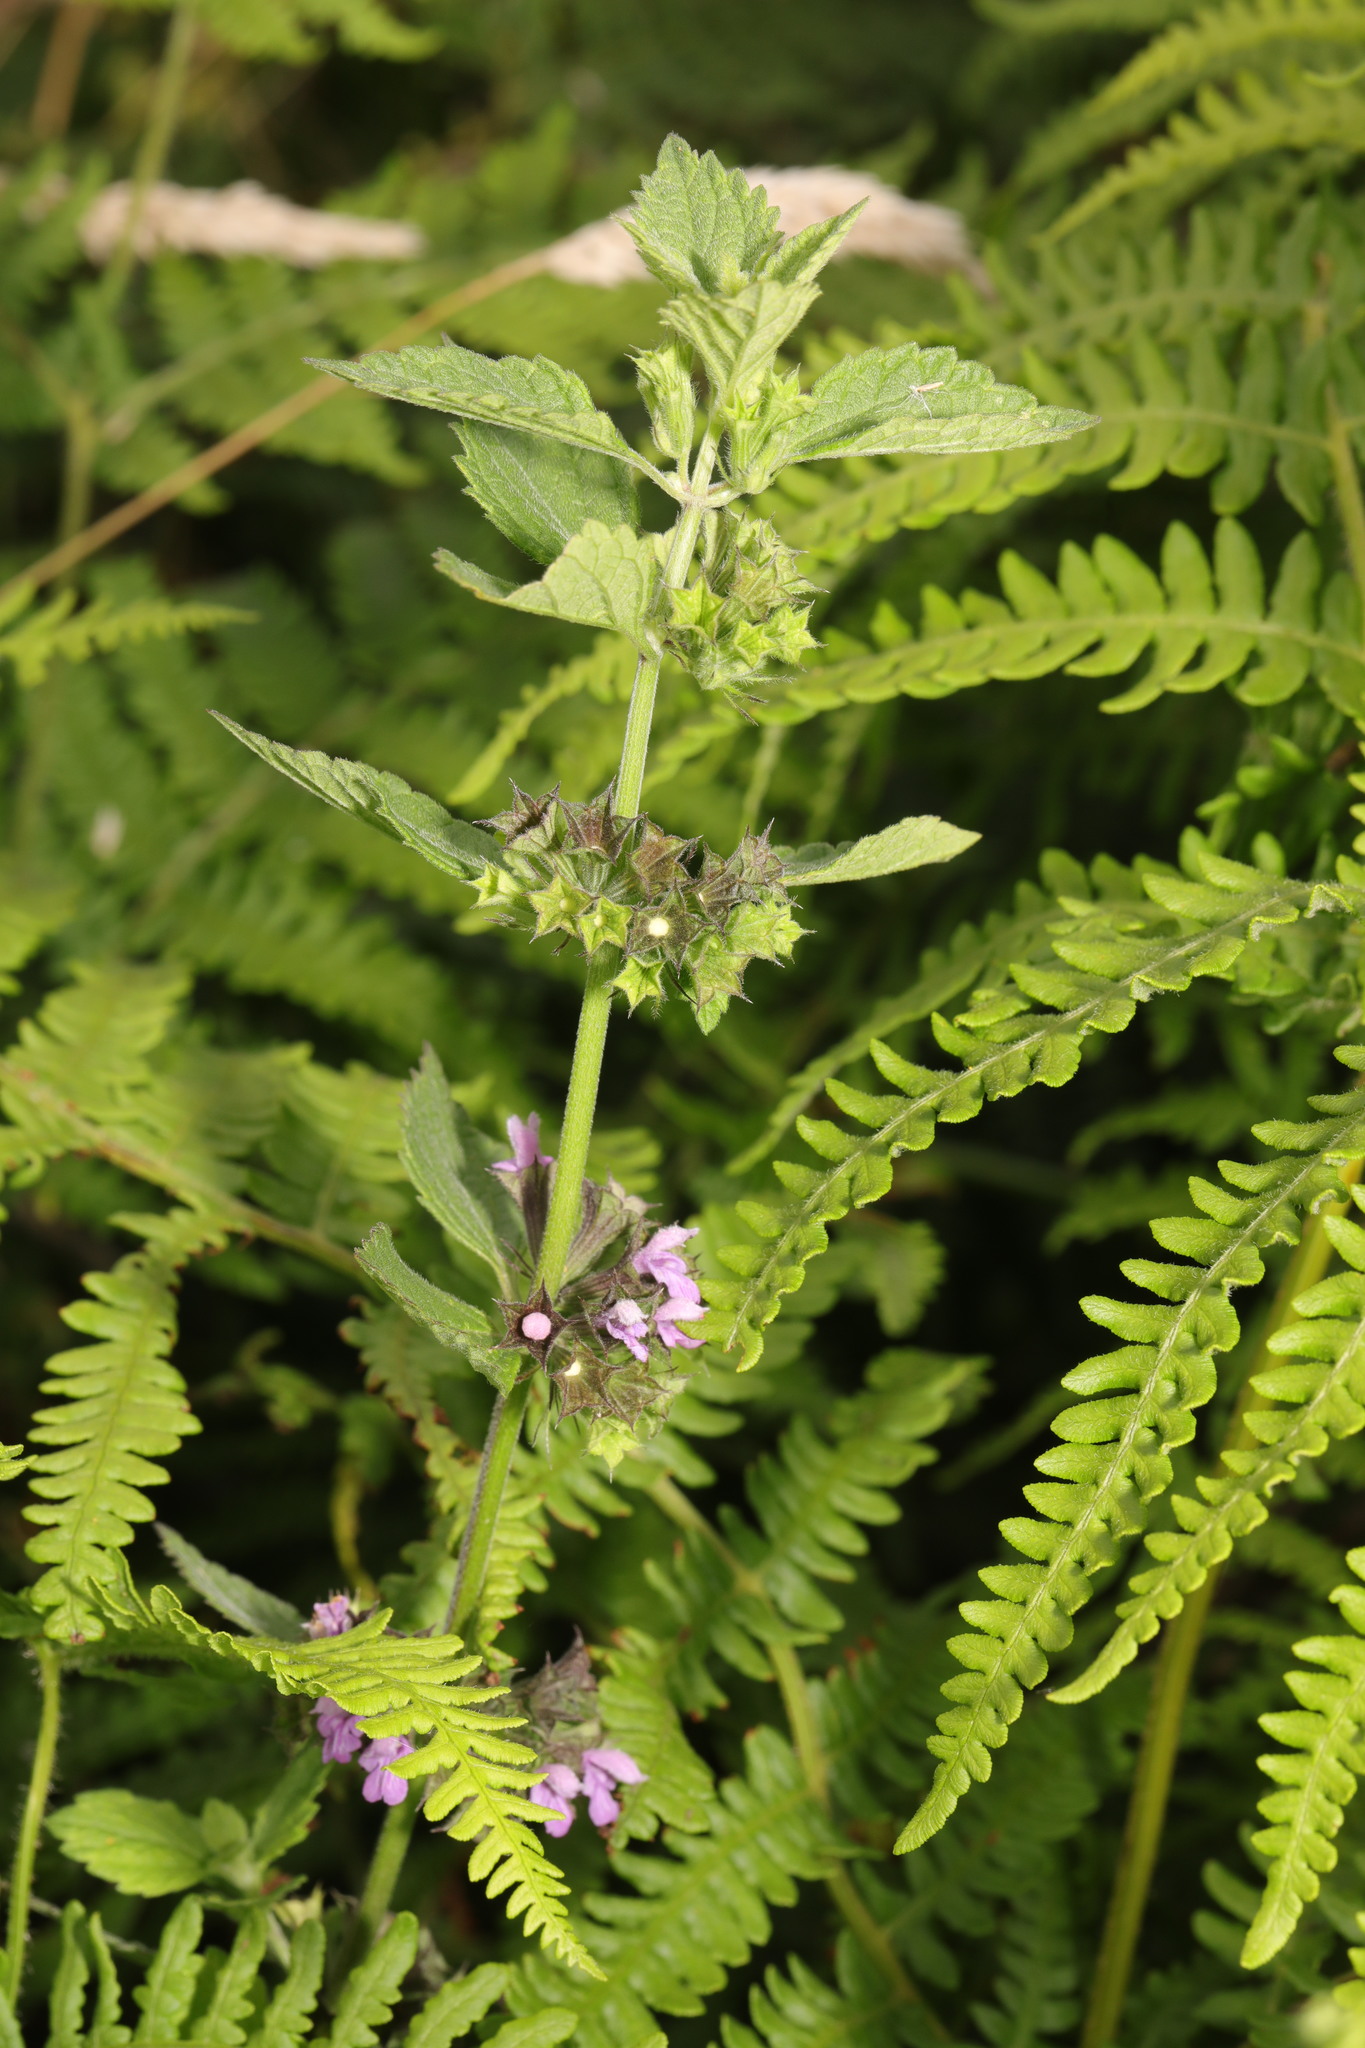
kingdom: Plantae
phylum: Tracheophyta
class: Magnoliopsida
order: Lamiales
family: Lamiaceae
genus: Ballota
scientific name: Ballota nigra
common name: Black horehound
